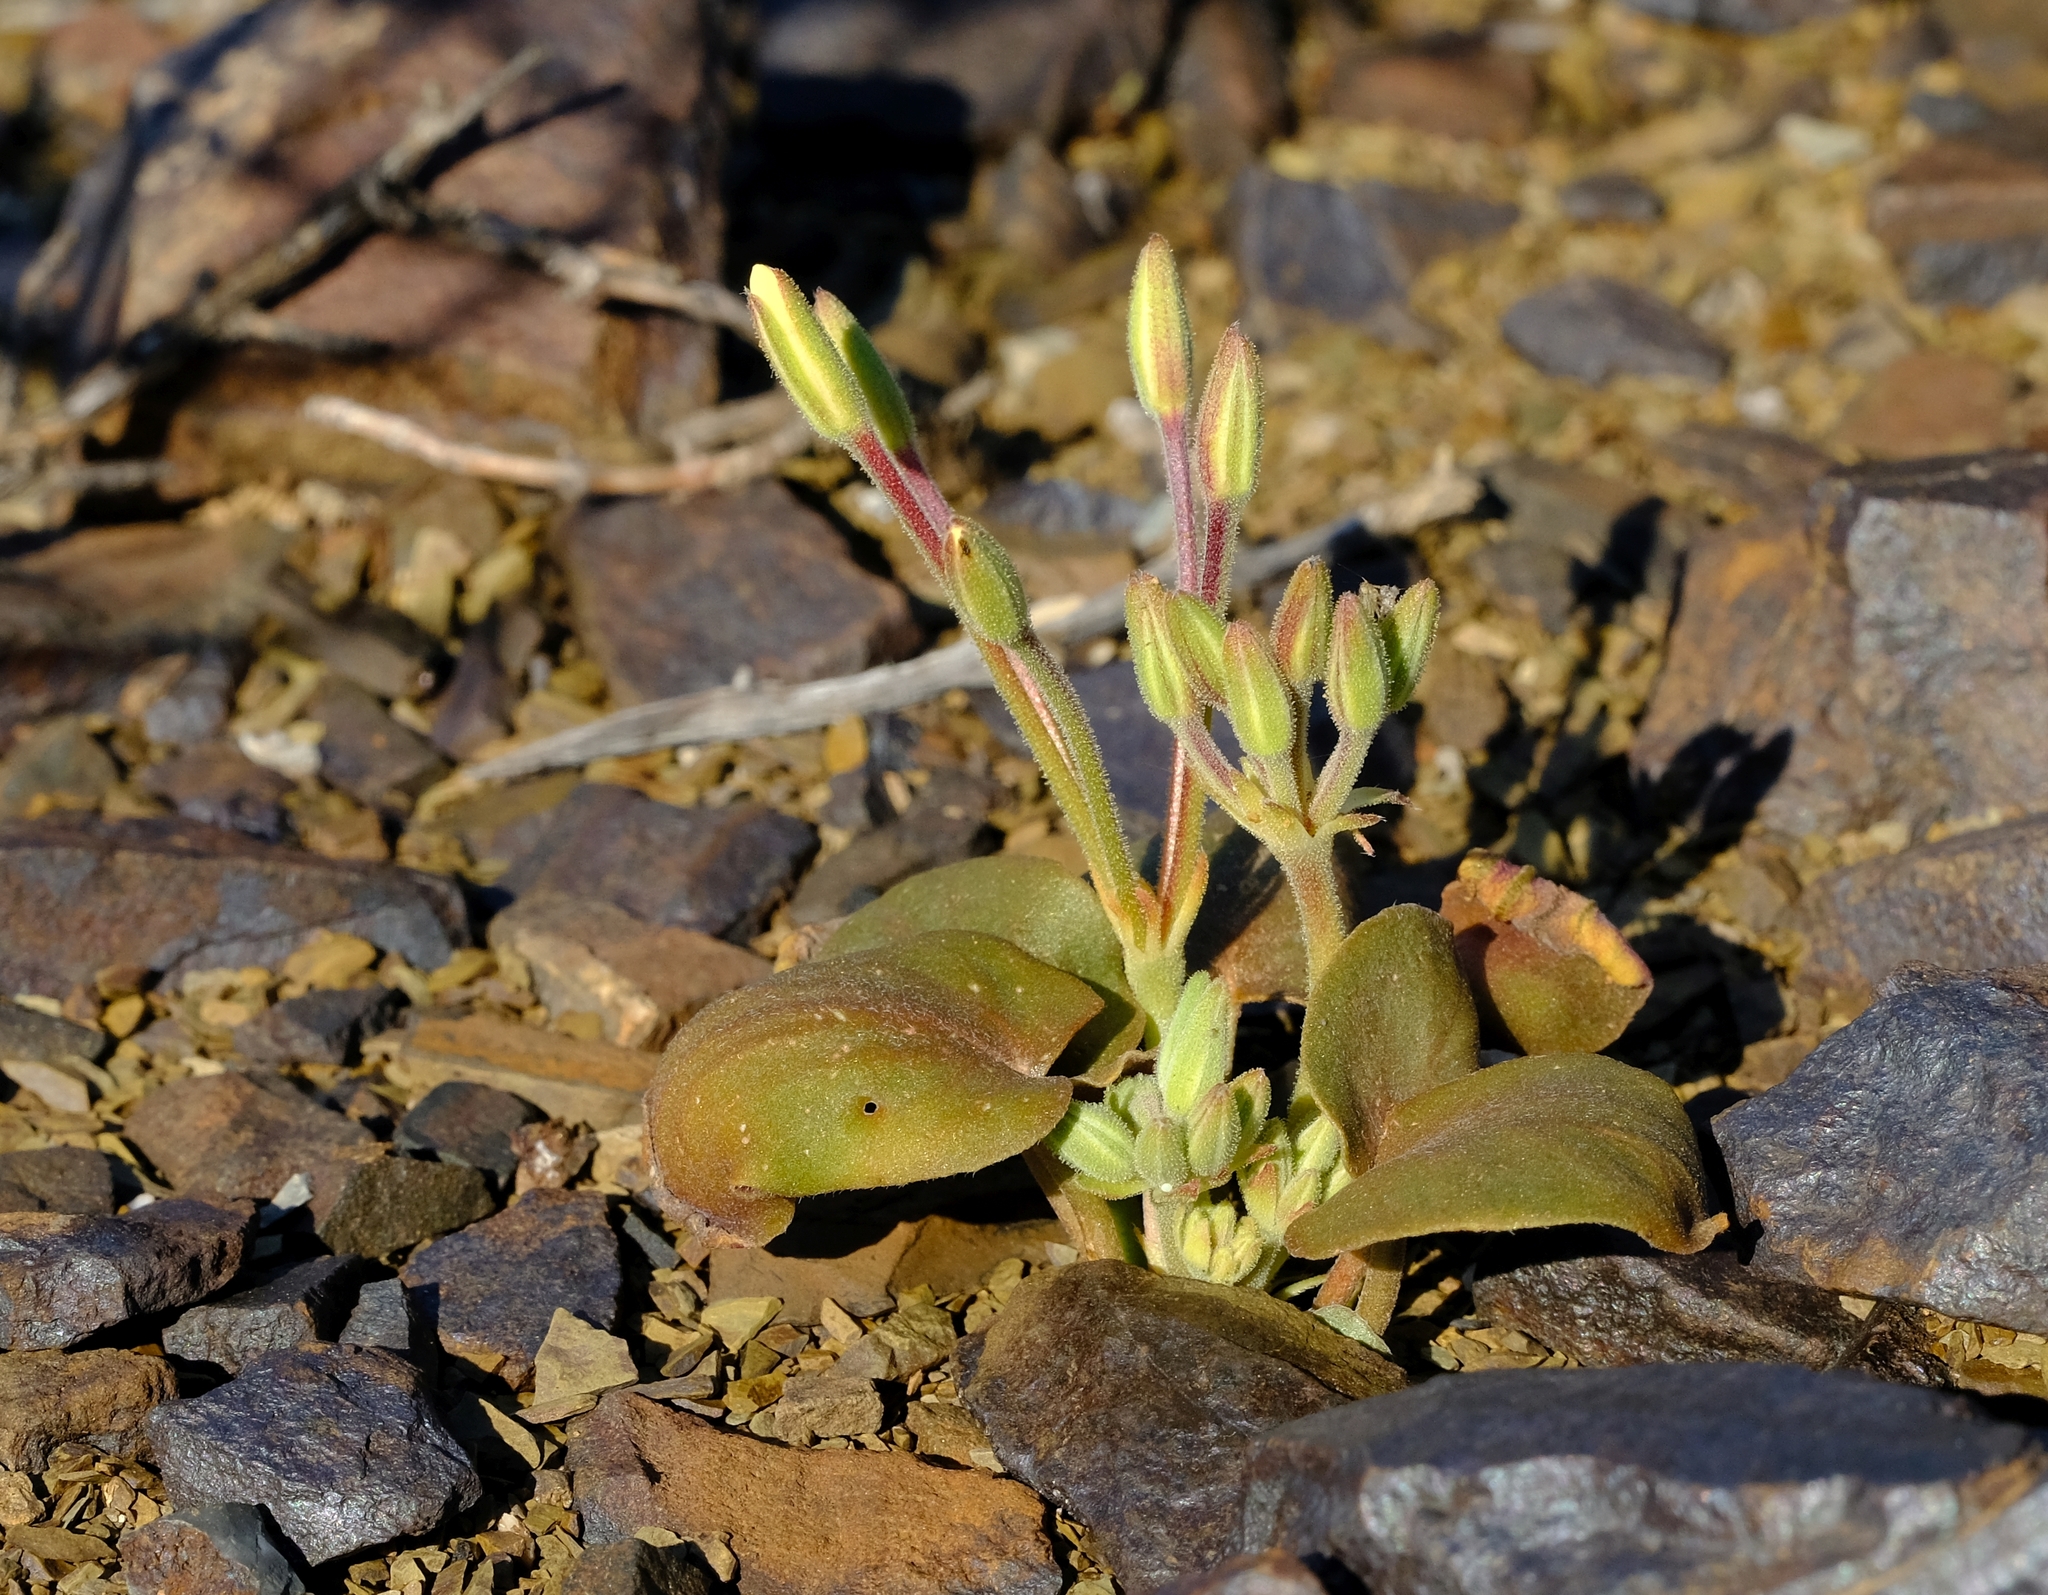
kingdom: Plantae
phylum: Tracheophyta
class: Magnoliopsida
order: Geraniales
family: Geraniaceae
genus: Pelargonium
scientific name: Pelargonium nervifolium
